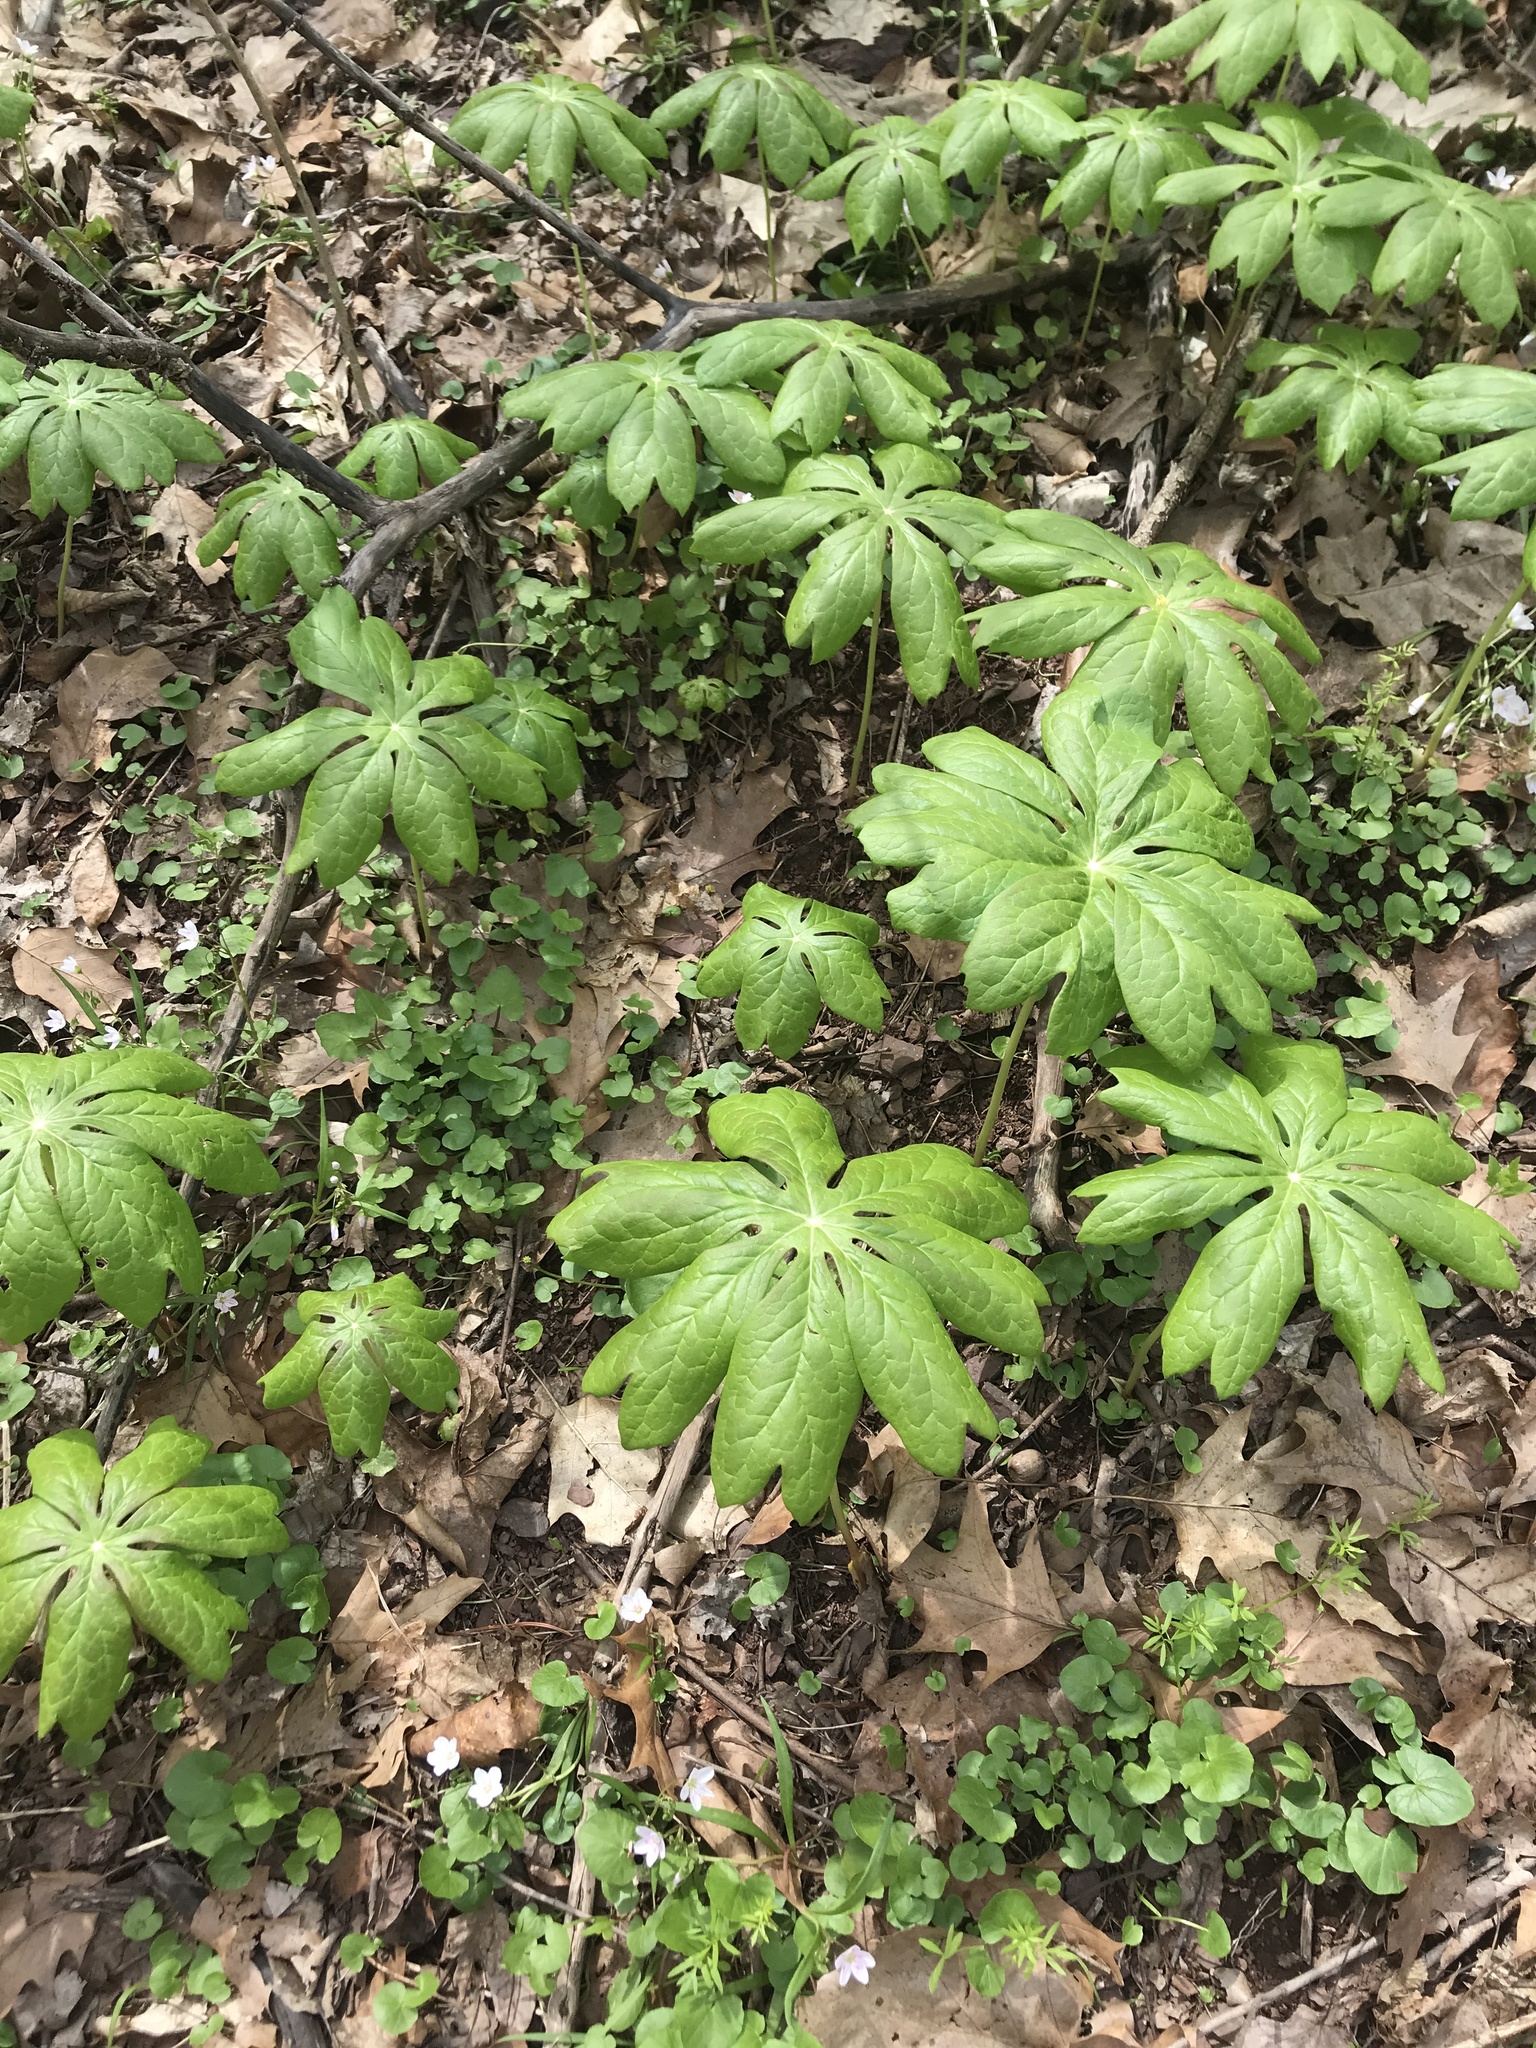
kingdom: Plantae
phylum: Tracheophyta
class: Magnoliopsida
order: Ranunculales
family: Berberidaceae
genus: Podophyllum
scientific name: Podophyllum peltatum
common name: Wild mandrake
